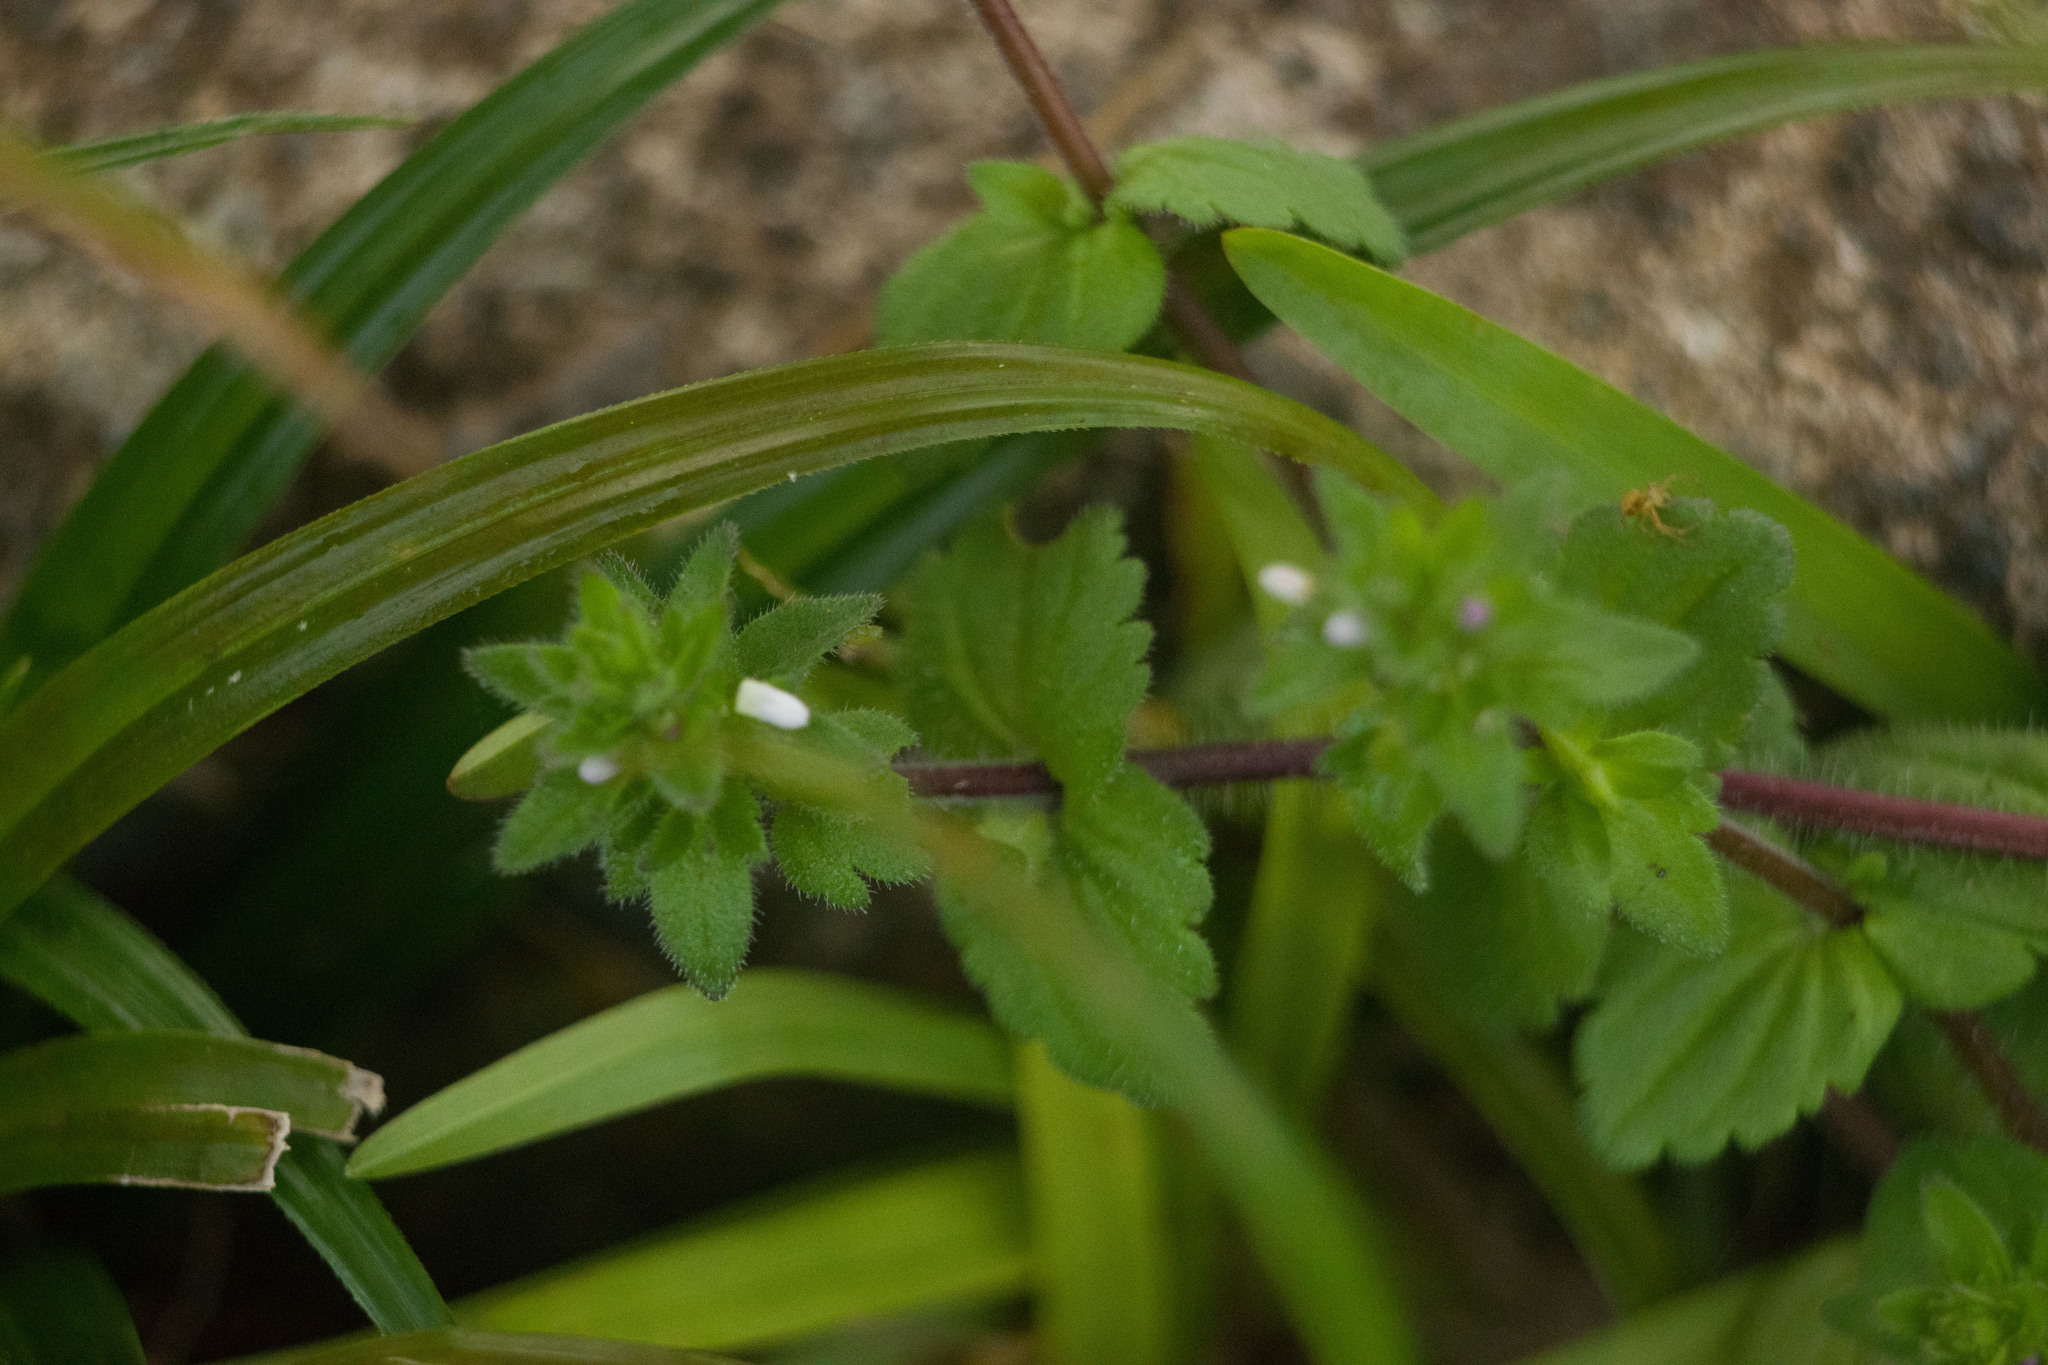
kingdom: Plantae
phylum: Tracheophyta
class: Magnoliopsida
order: Lamiales
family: Plantaginaceae
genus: Veronica
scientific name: Veronica arvensis
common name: Corn speedwell
